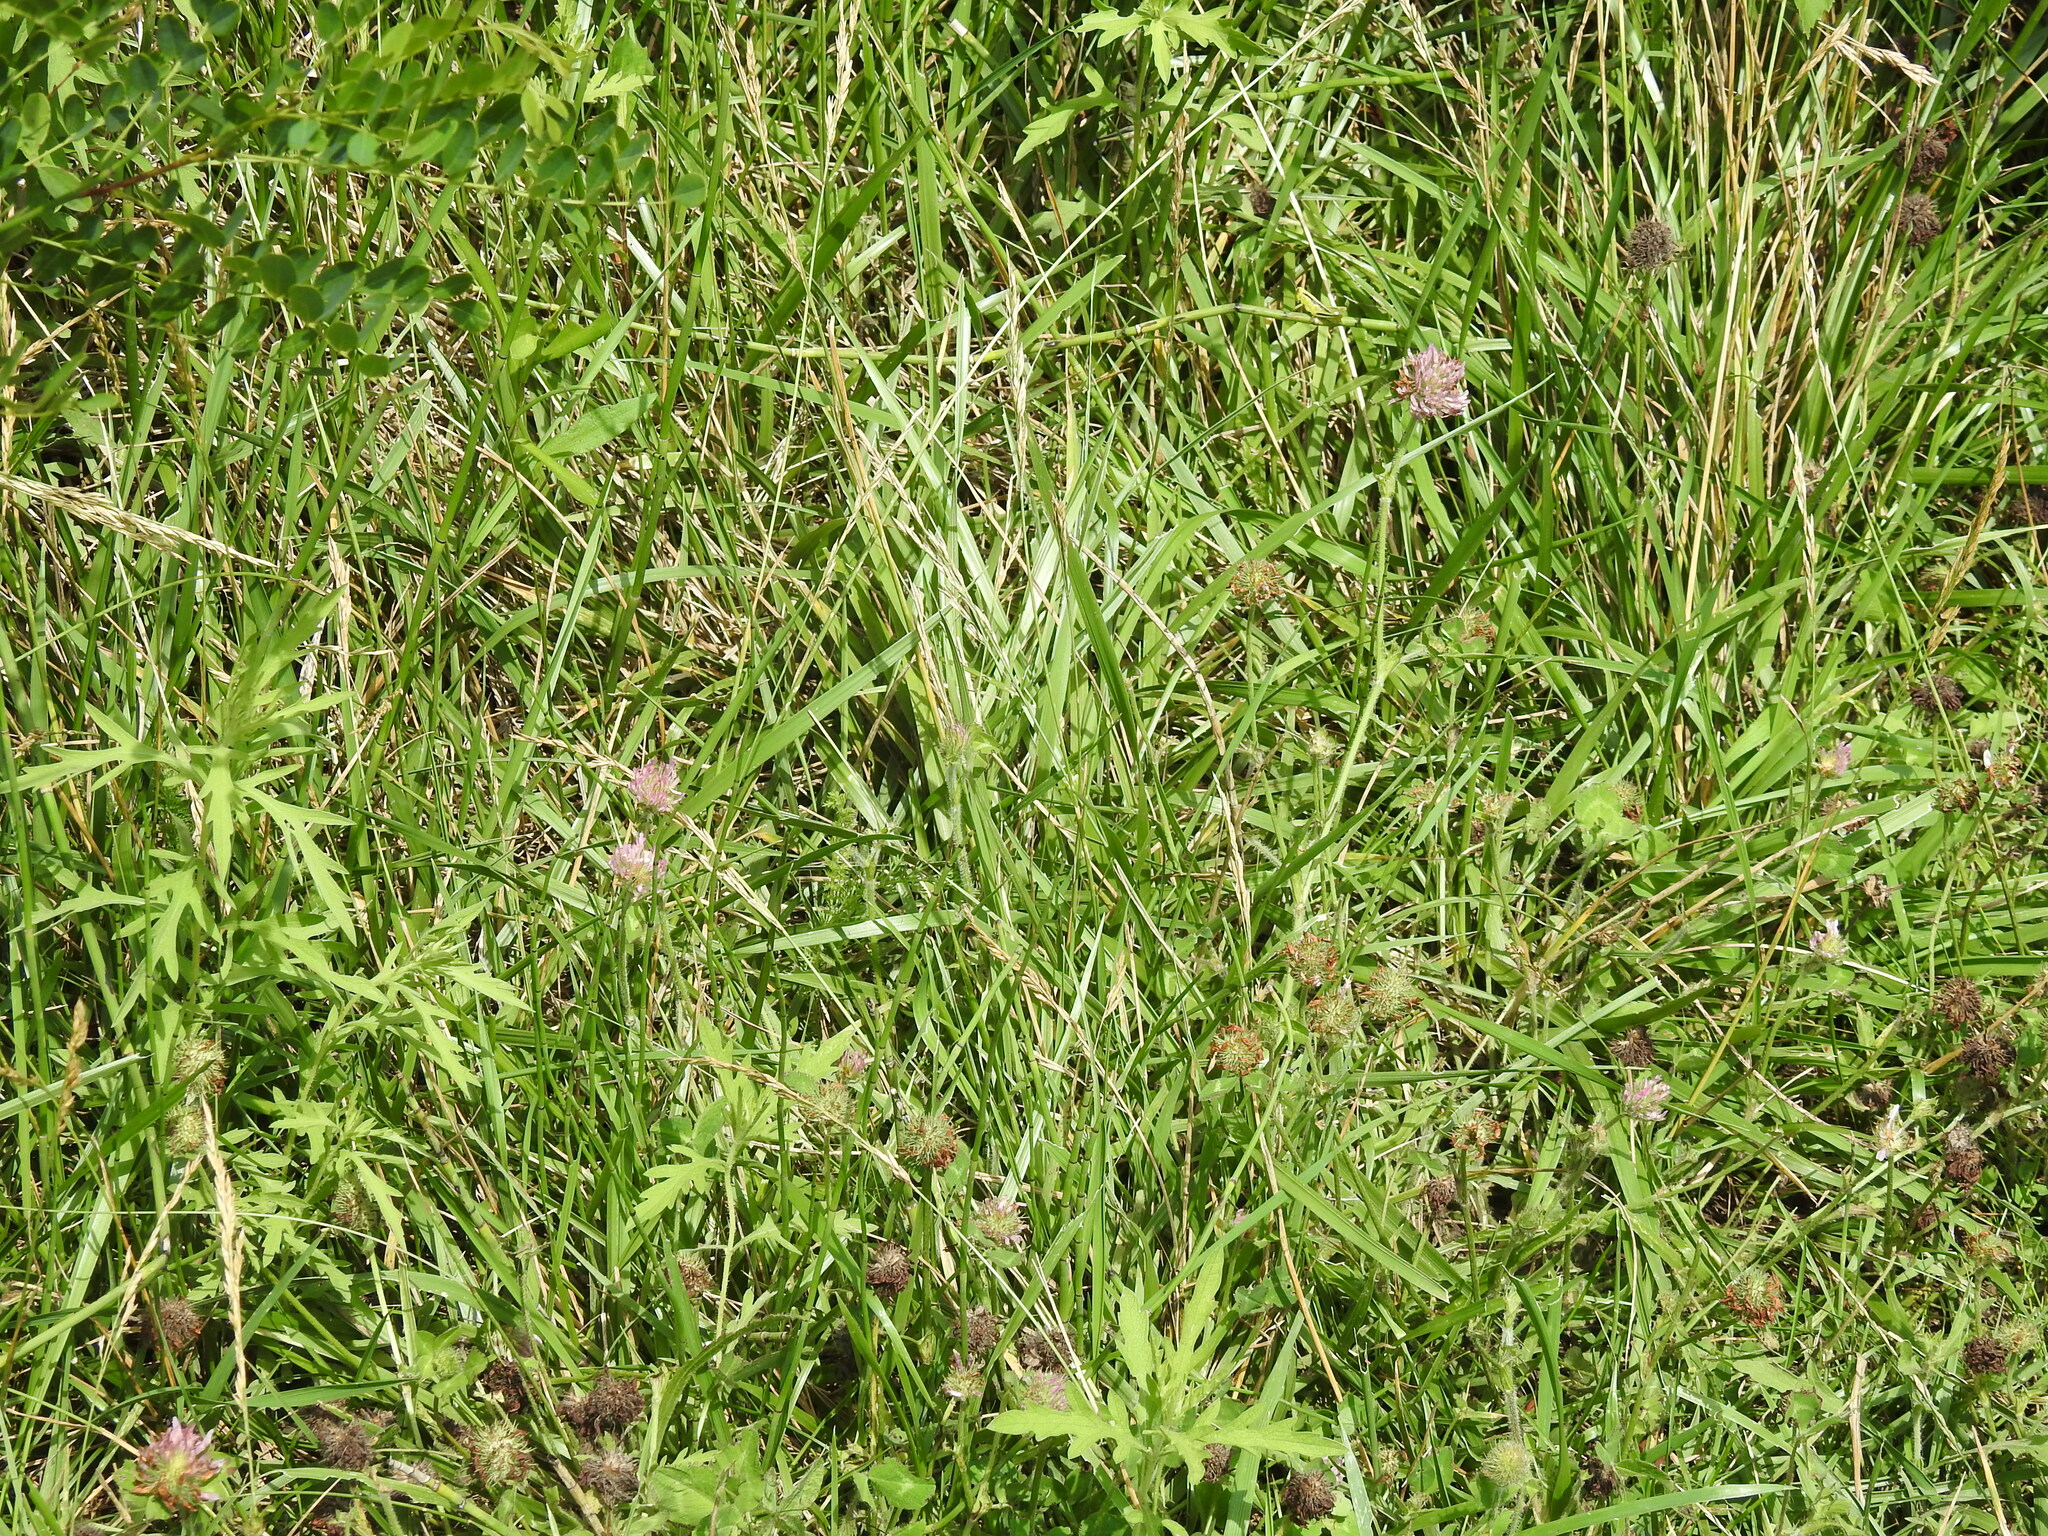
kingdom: Plantae
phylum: Tracheophyta
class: Magnoliopsida
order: Fabales
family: Fabaceae
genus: Trifolium
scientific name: Trifolium pratense
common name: Red clover
